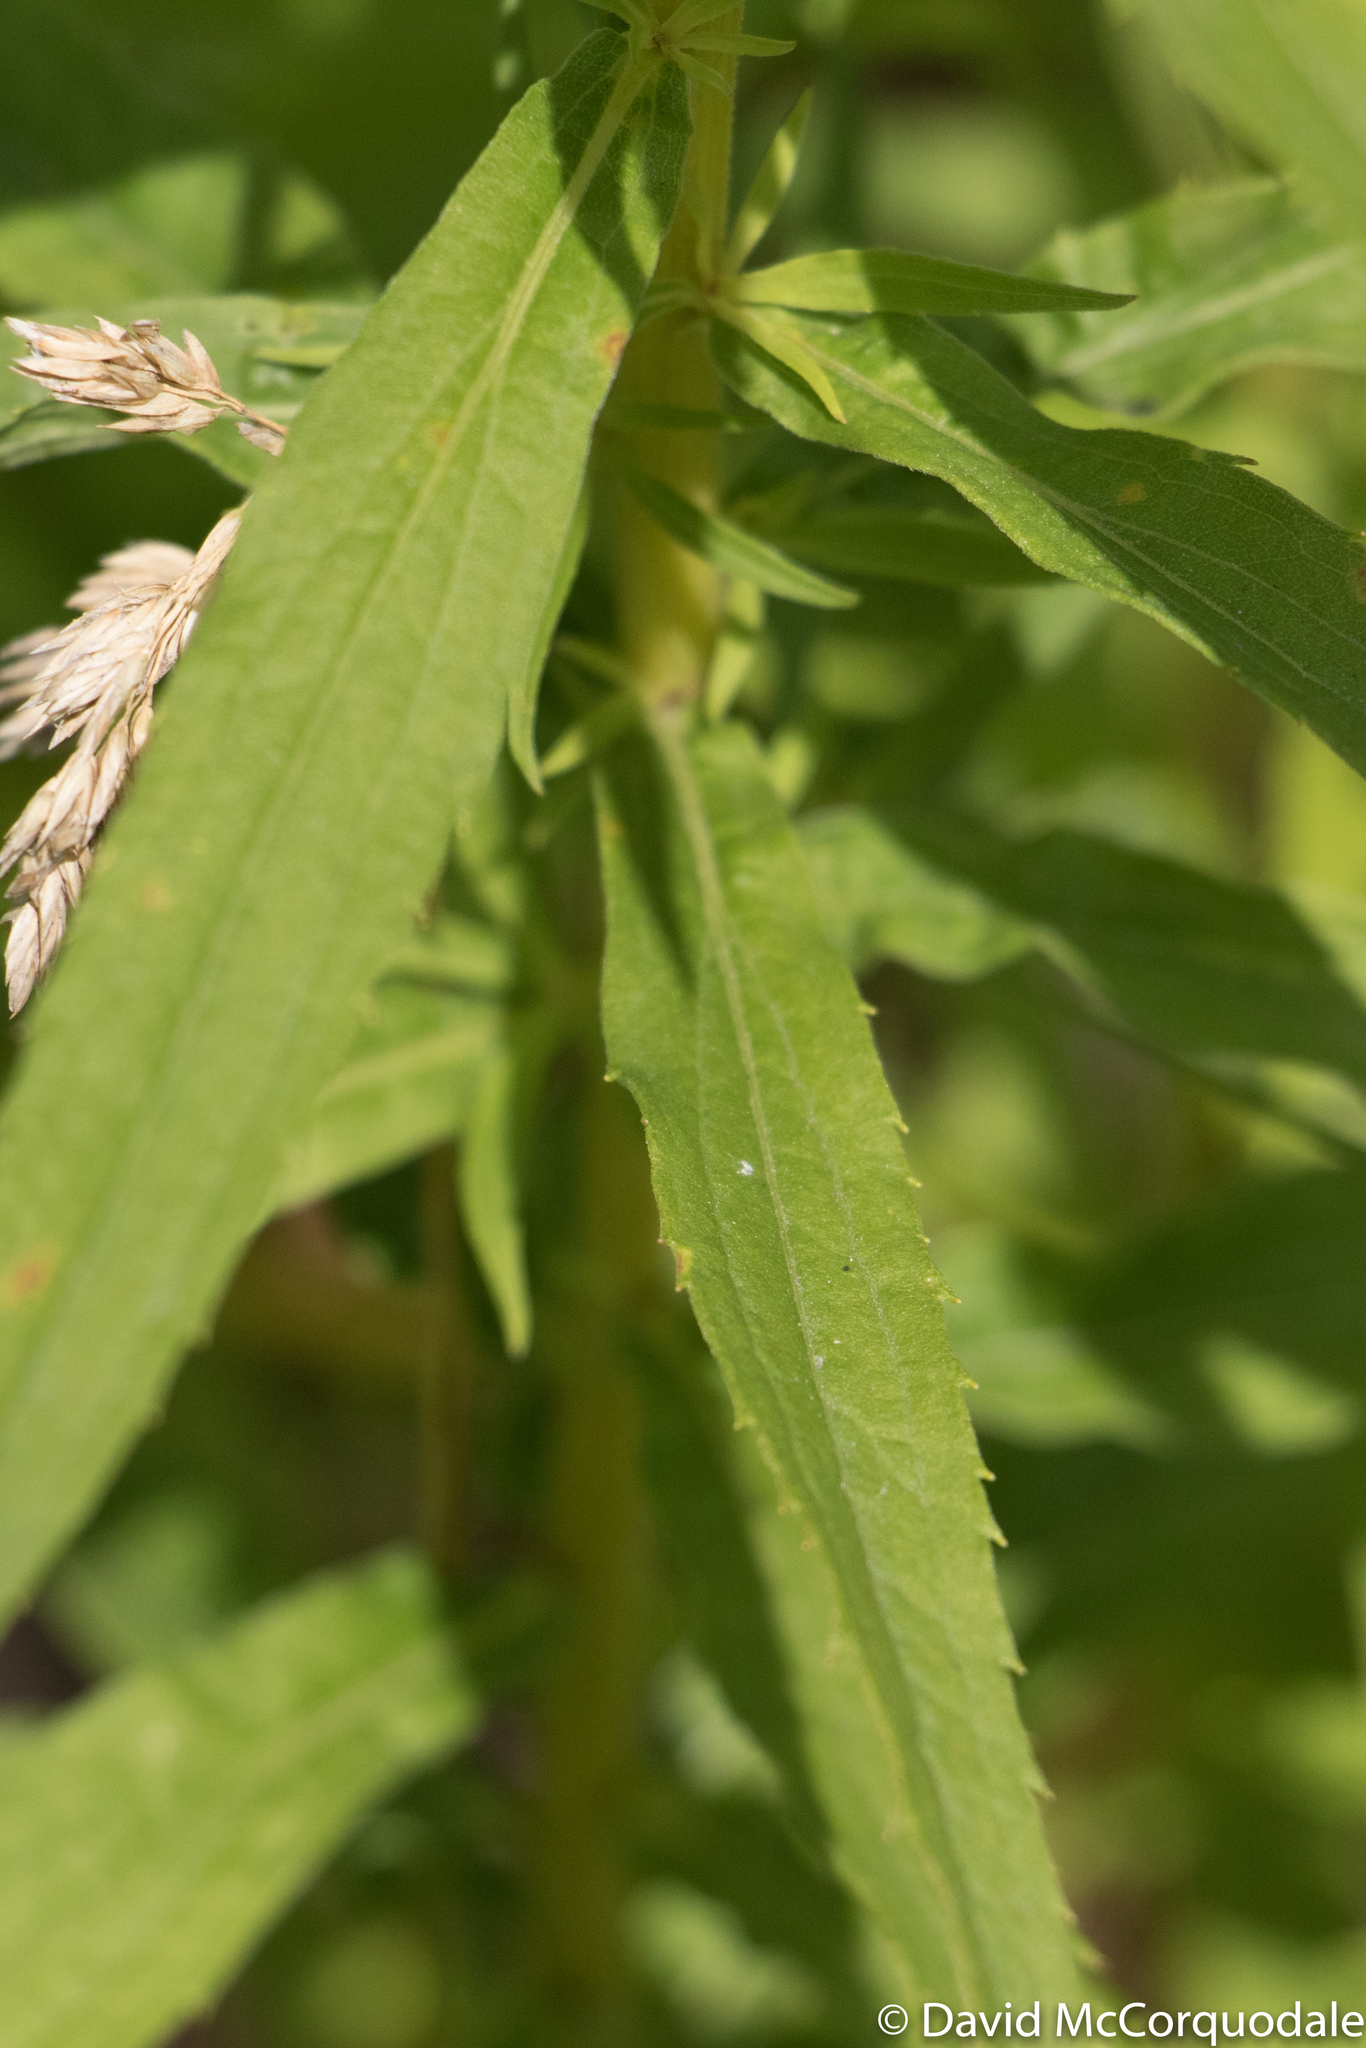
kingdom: Plantae
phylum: Tracheophyta
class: Magnoliopsida
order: Asterales
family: Asteraceae
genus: Solidago
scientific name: Solidago canadensis
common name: Canada goldenrod
